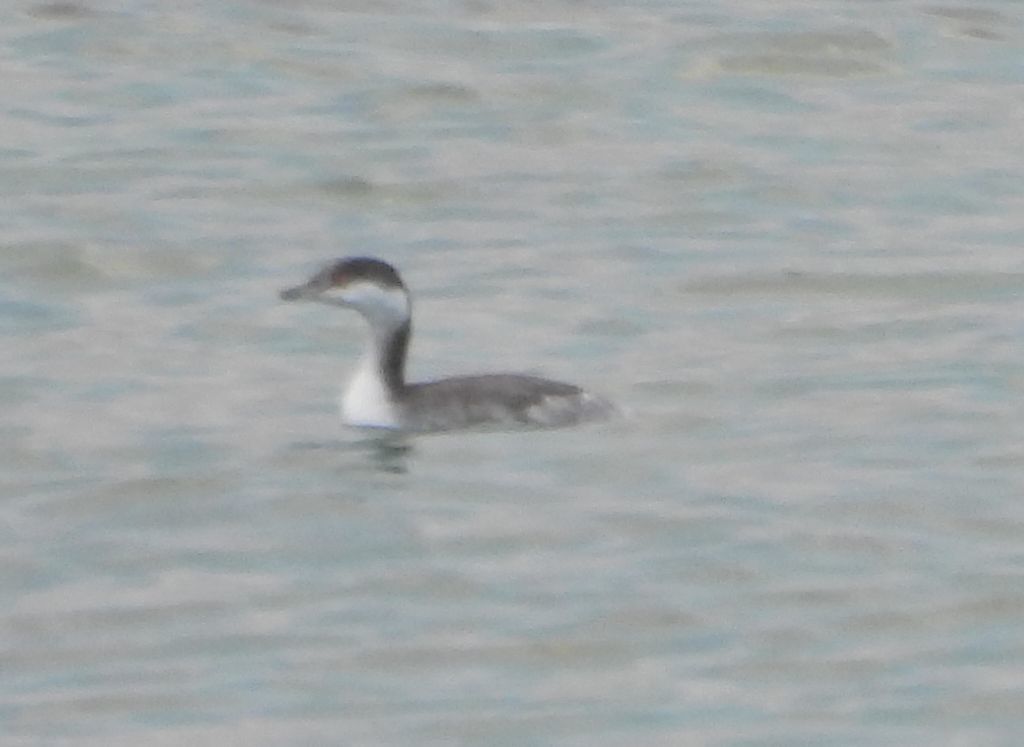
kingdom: Animalia
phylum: Chordata
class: Aves
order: Podicipediformes
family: Podicipedidae
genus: Podiceps
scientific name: Podiceps auritus
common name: Horned grebe
